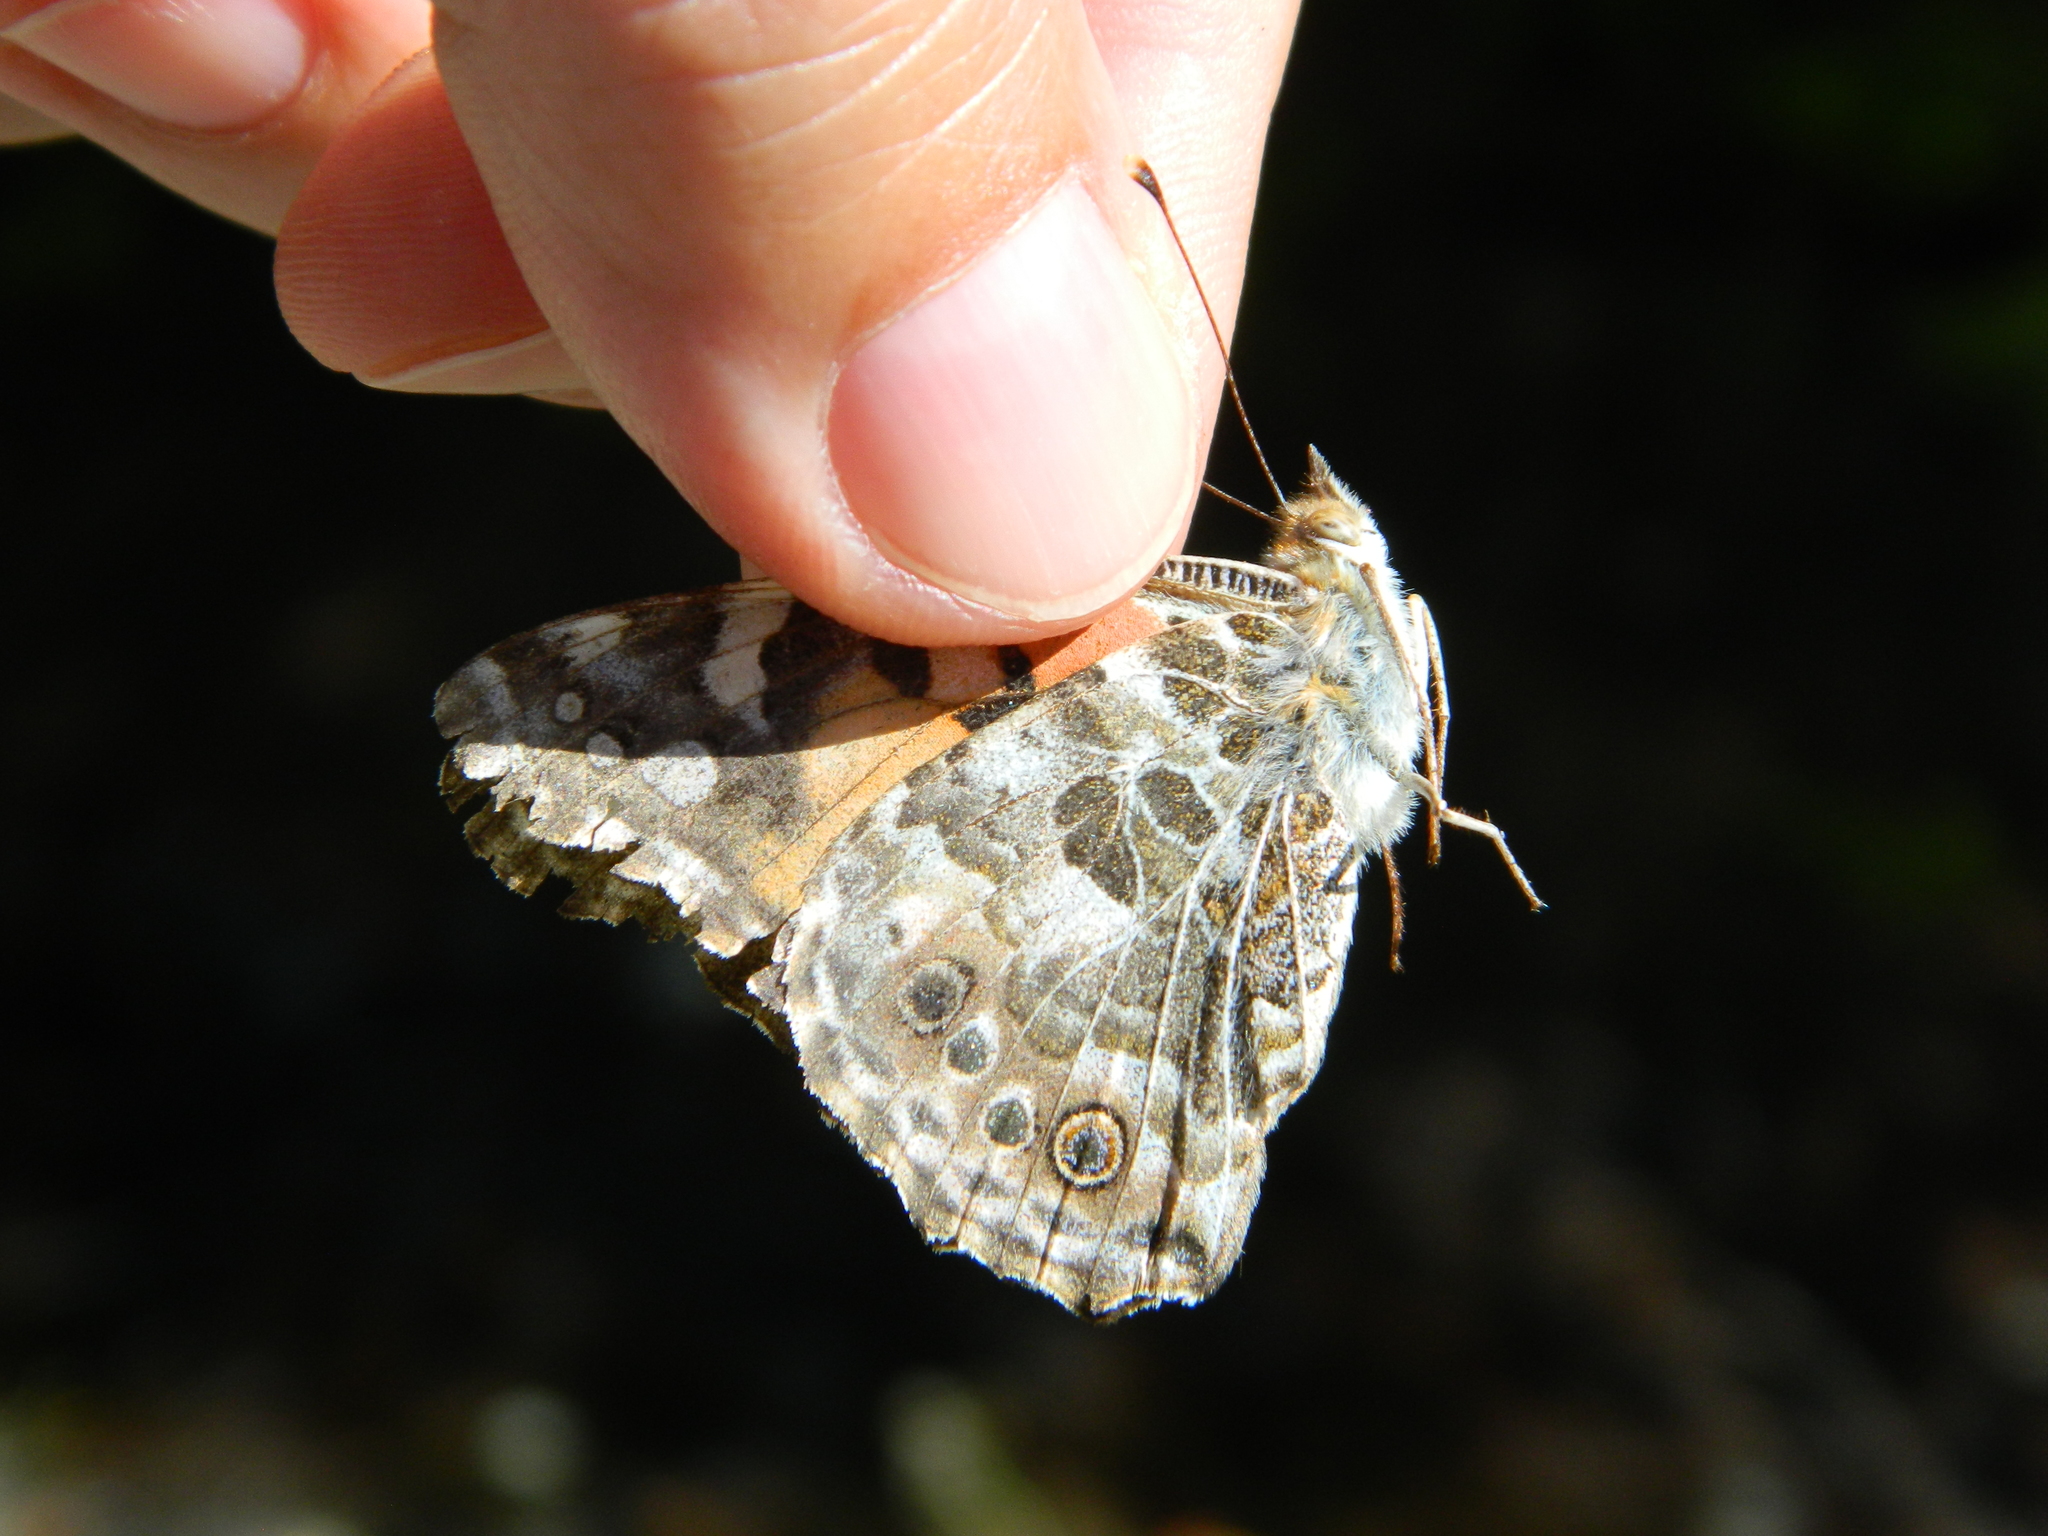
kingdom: Animalia
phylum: Arthropoda
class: Insecta
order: Lepidoptera
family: Nymphalidae
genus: Vanessa
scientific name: Vanessa cardui
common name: Painted lady
